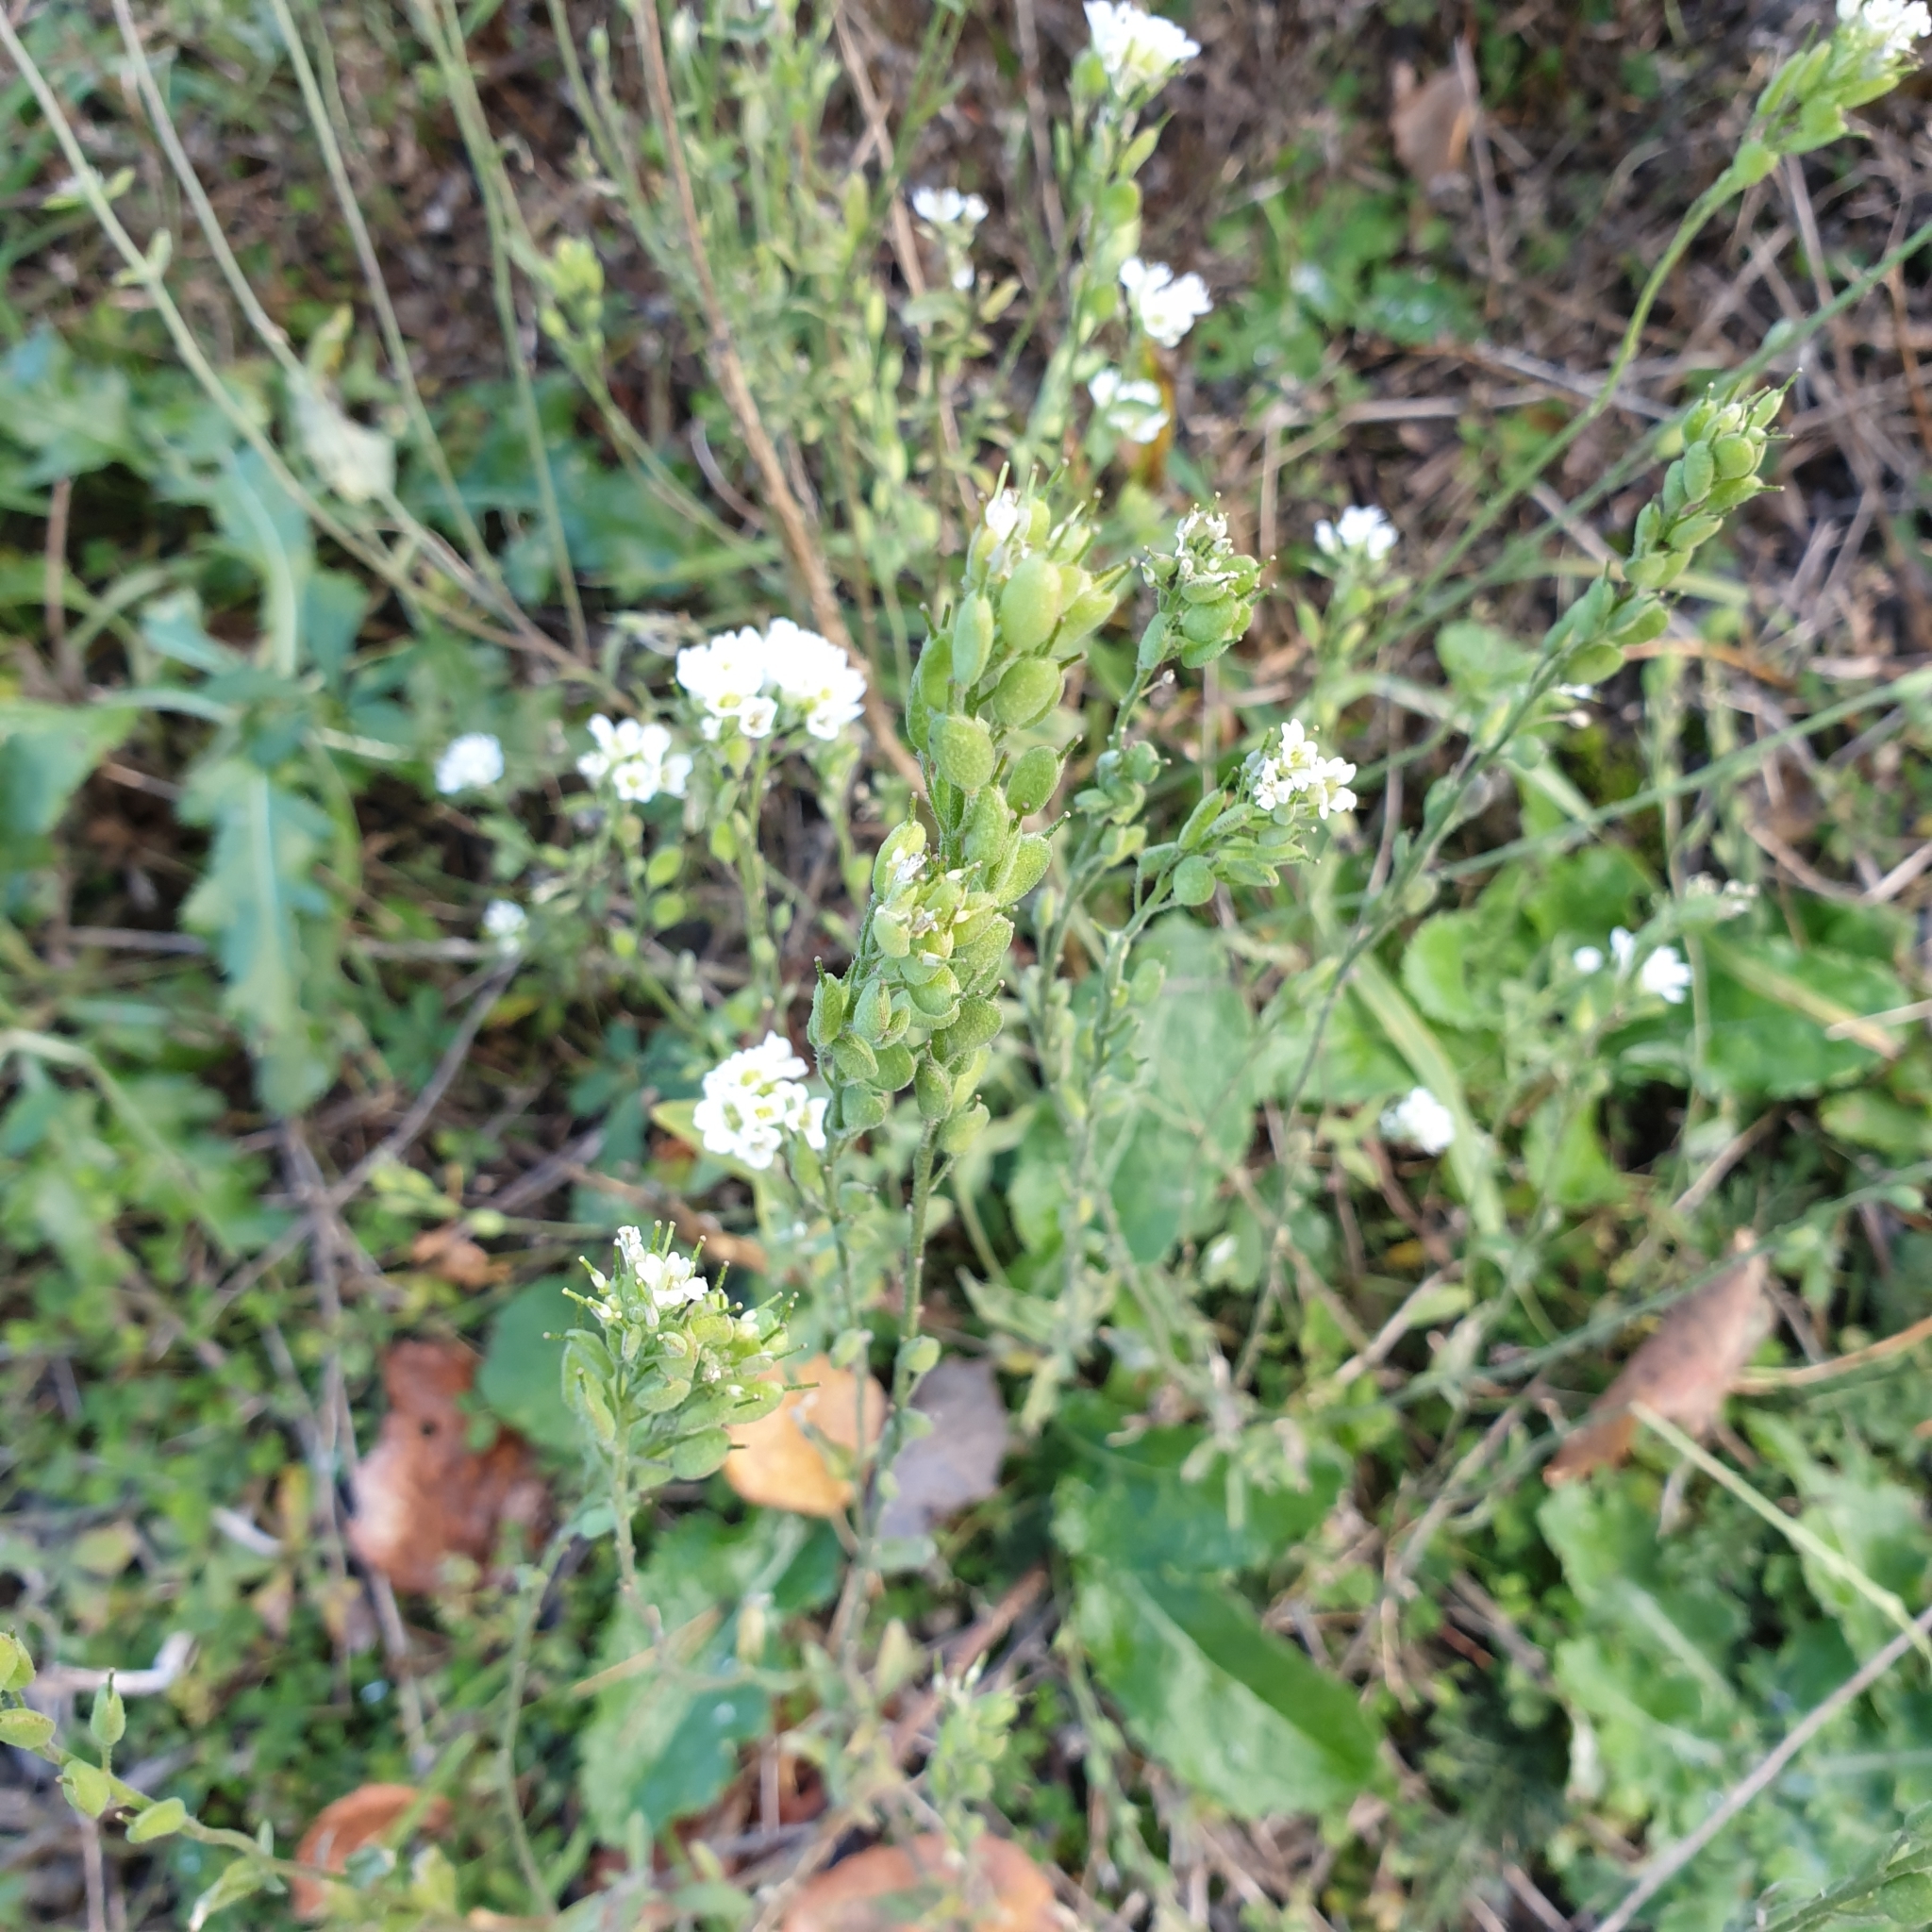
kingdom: Plantae
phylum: Tracheophyta
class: Magnoliopsida
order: Brassicales
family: Brassicaceae
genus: Berteroa
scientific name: Berteroa incana
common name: Hoary alison
